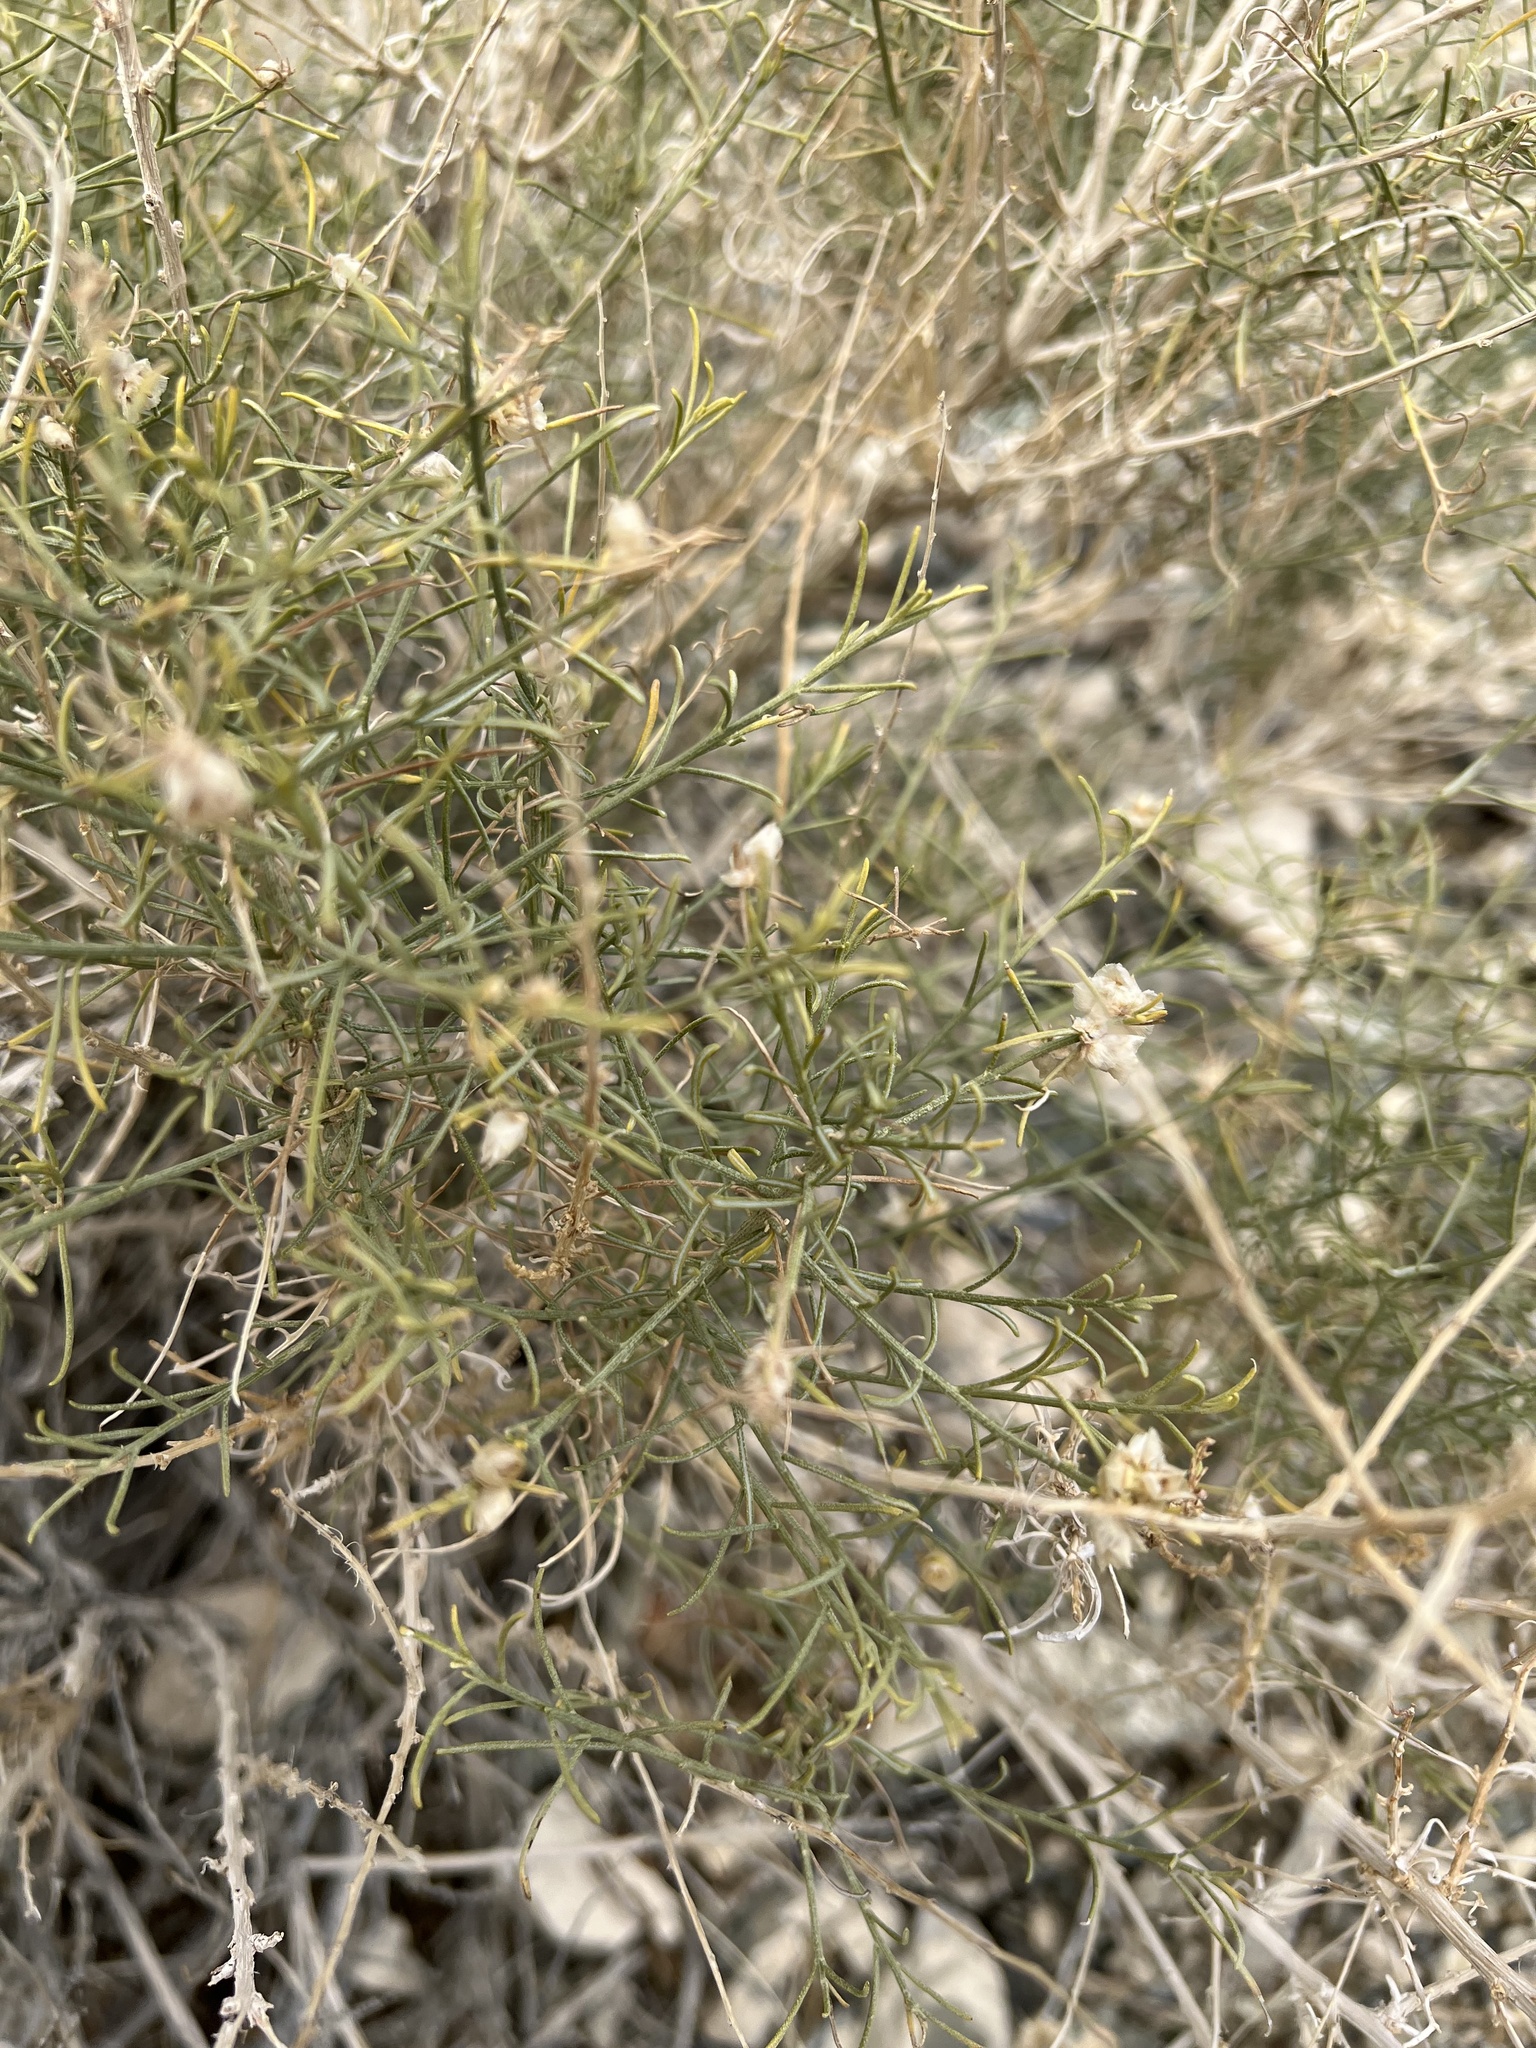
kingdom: Plantae
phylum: Tracheophyta
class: Magnoliopsida
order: Asterales
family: Asteraceae
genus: Ambrosia
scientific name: Ambrosia salsola
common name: Burrobrush
